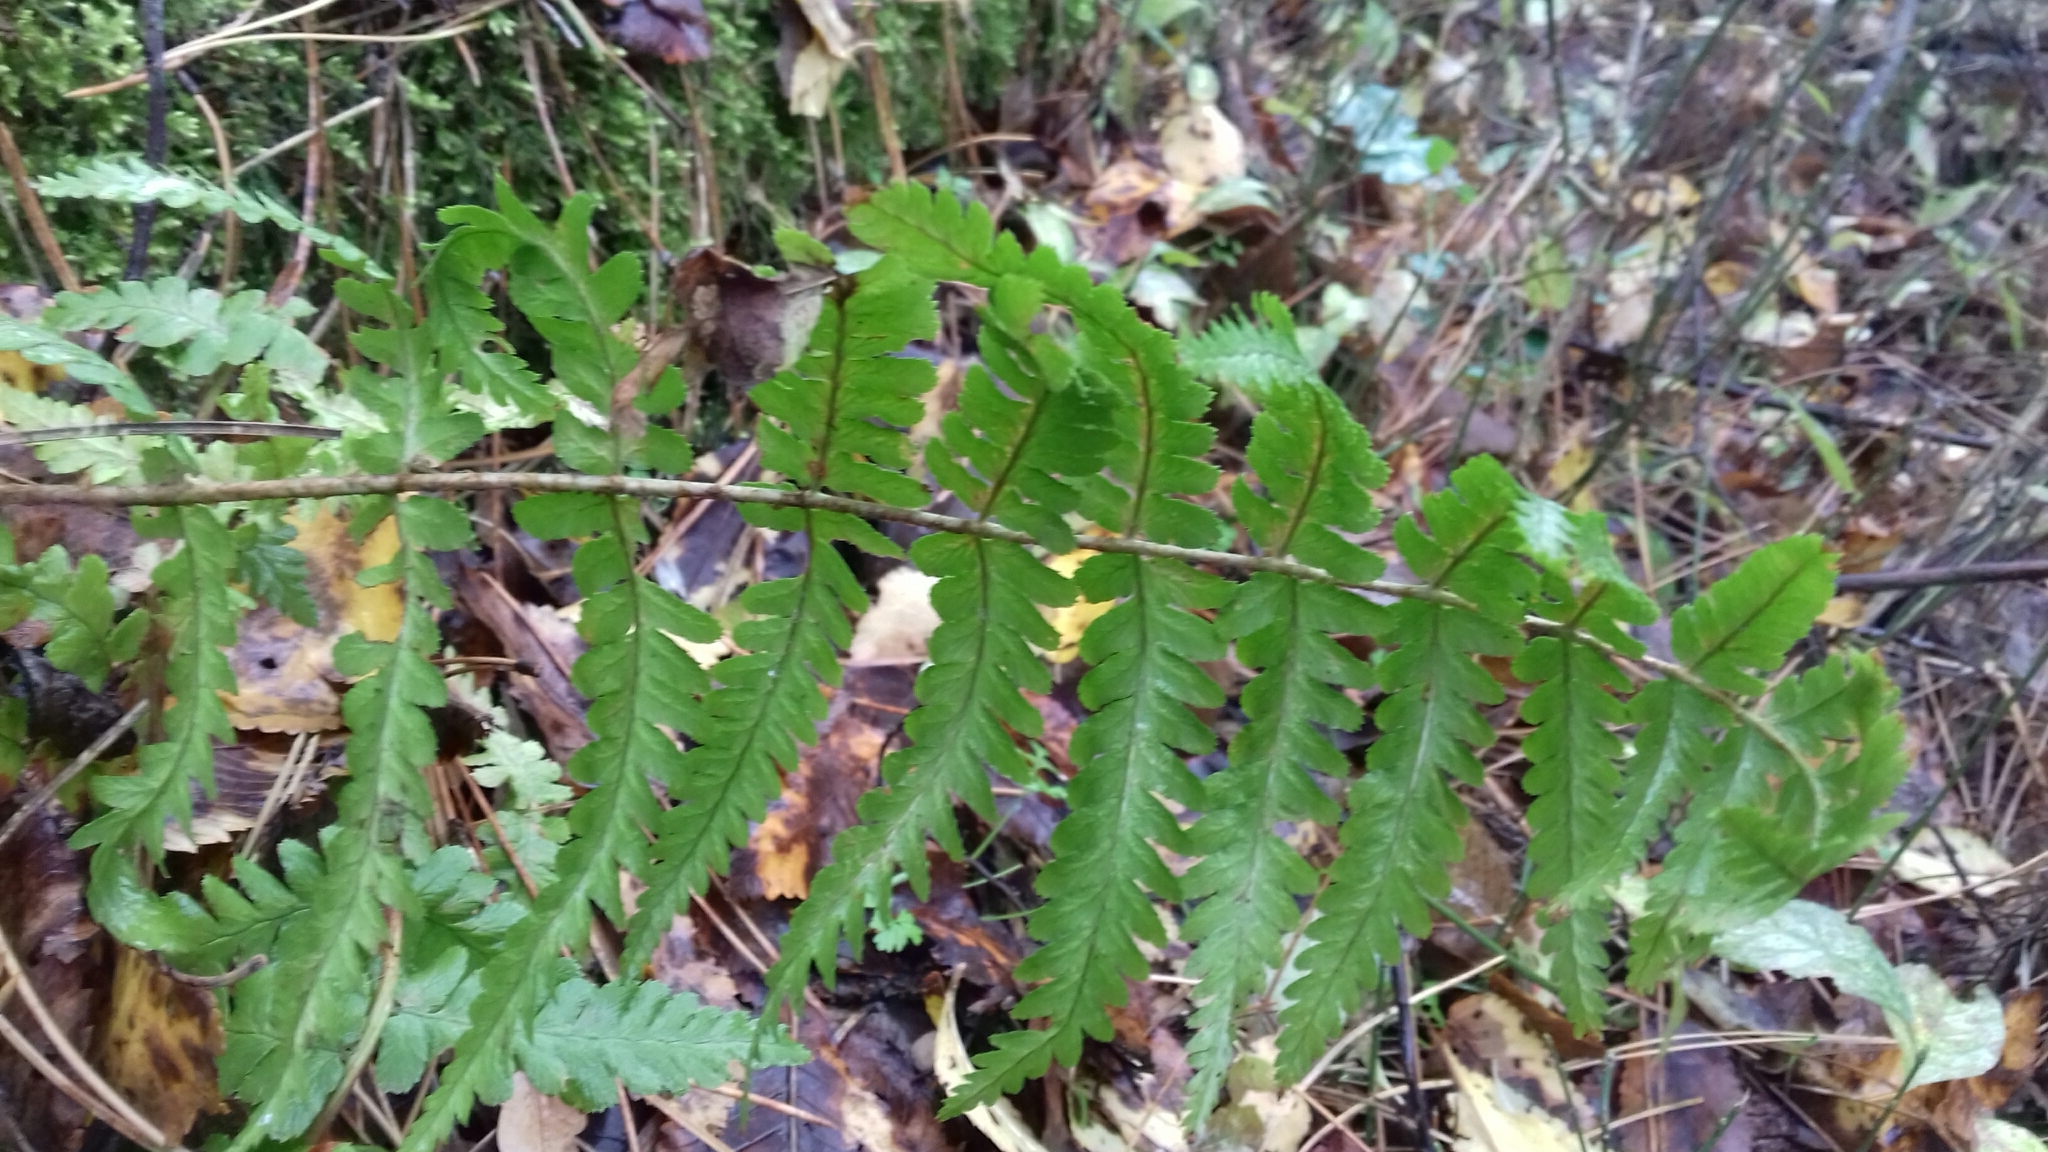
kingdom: Plantae
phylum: Tracheophyta
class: Polypodiopsida
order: Polypodiales
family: Dryopteridaceae
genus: Dryopteris
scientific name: Dryopteris filix-mas
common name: Male fern
